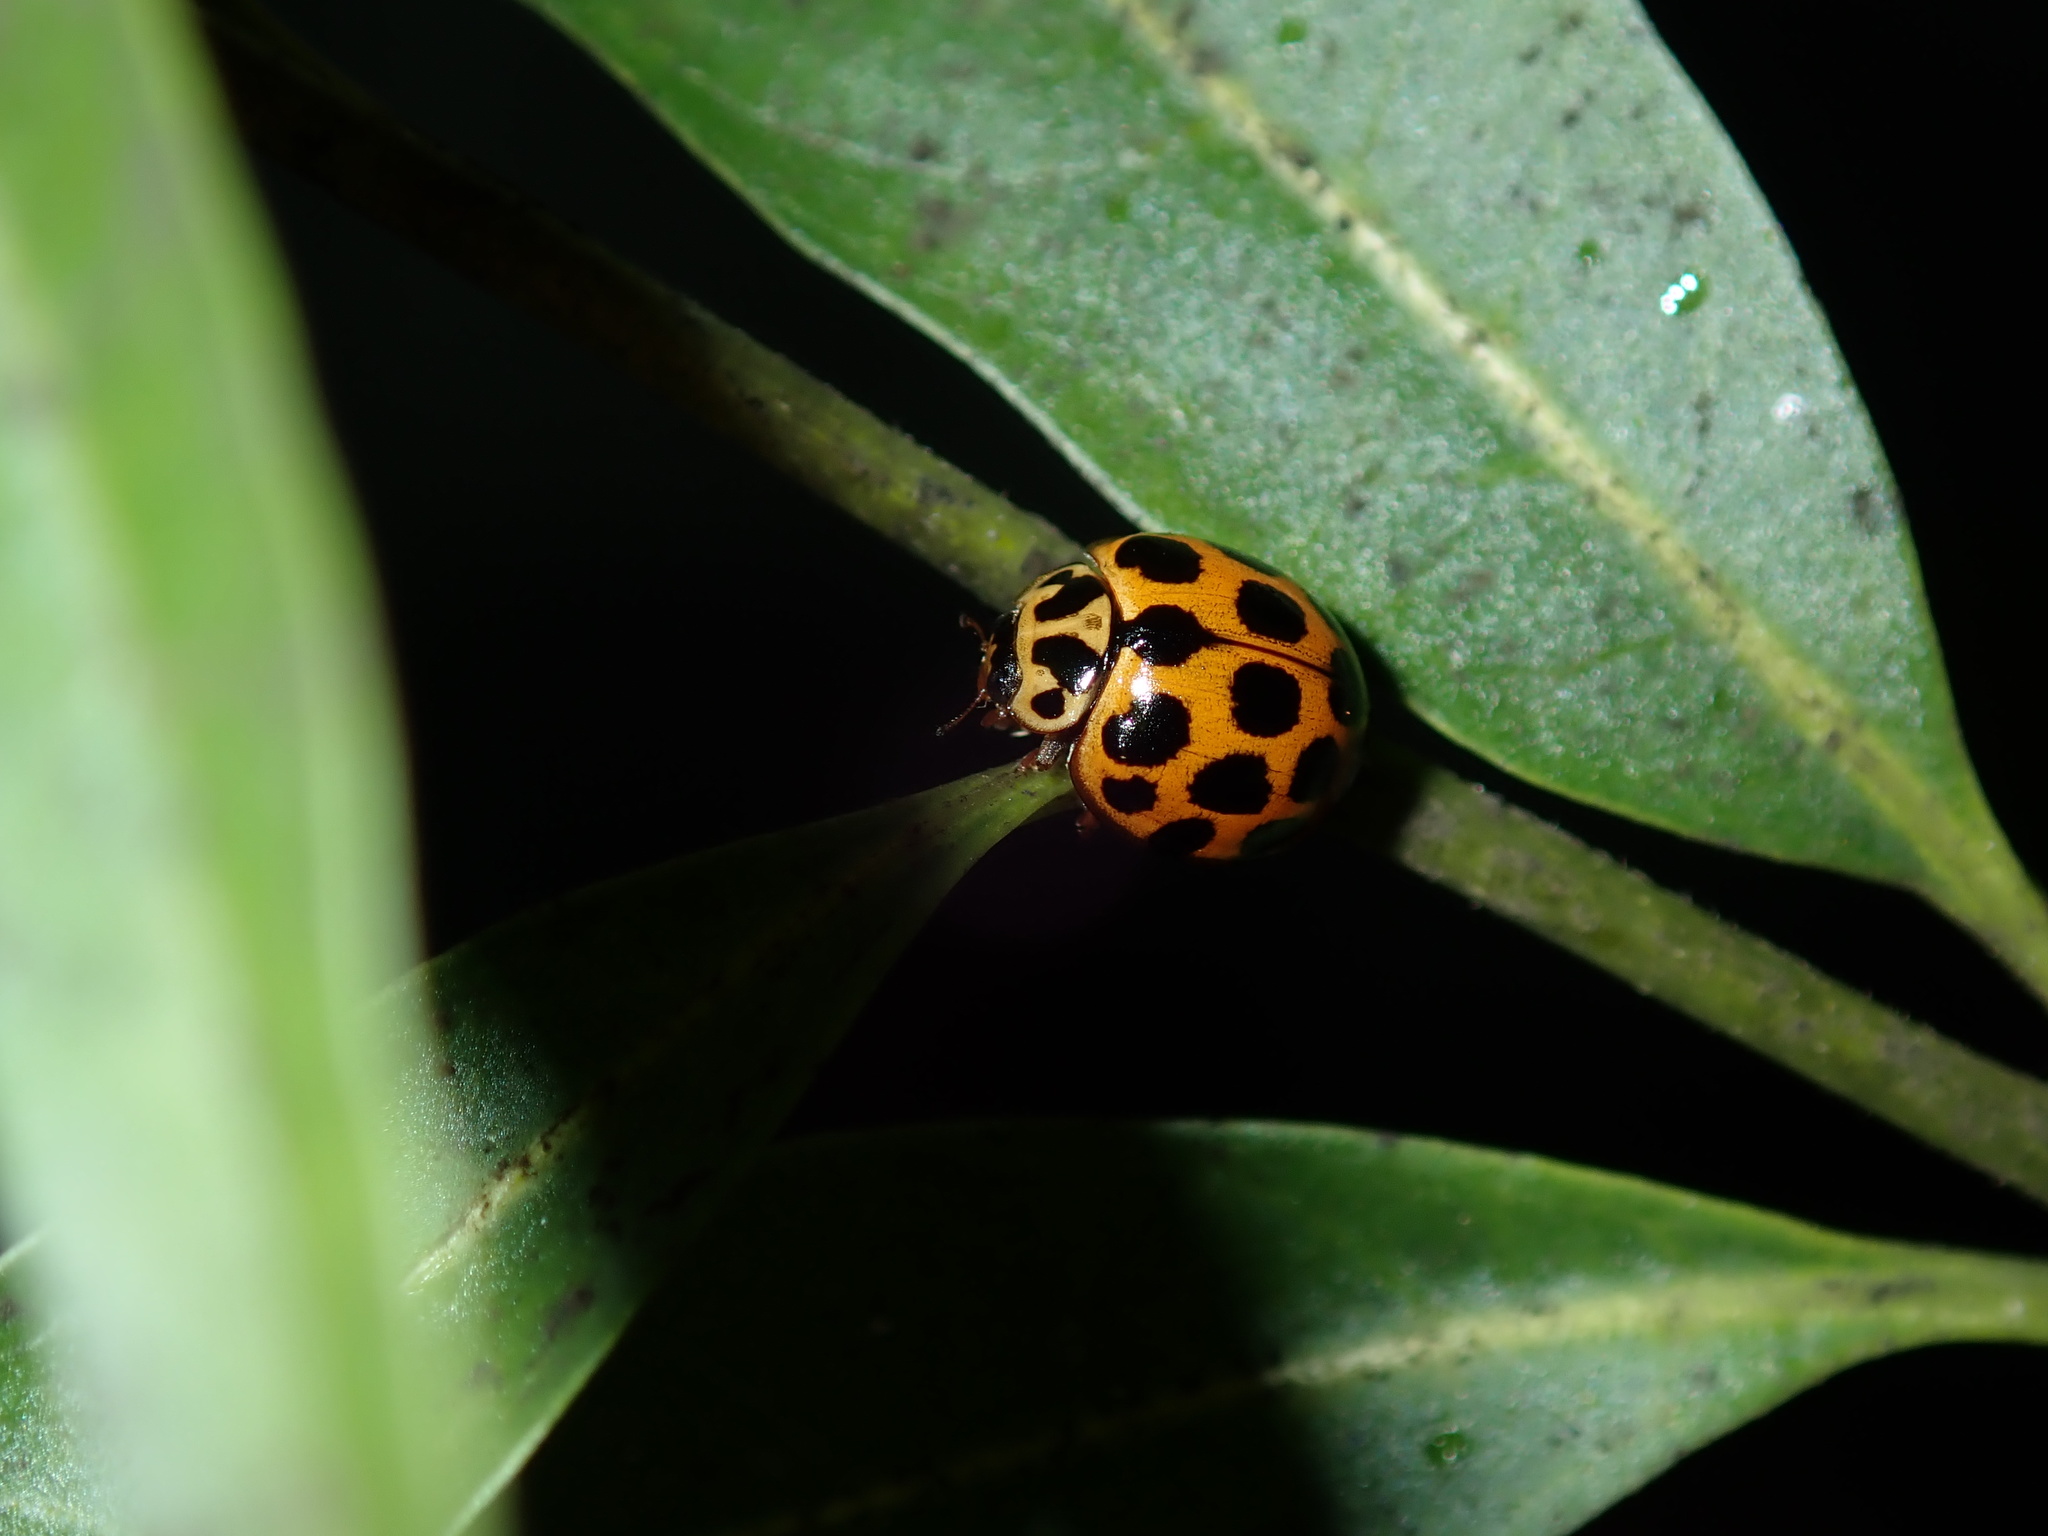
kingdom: Animalia
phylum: Arthropoda
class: Insecta
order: Coleoptera
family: Coccinellidae
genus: Harmonia
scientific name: Harmonia conformis
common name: Common spotted ladybird beetle
